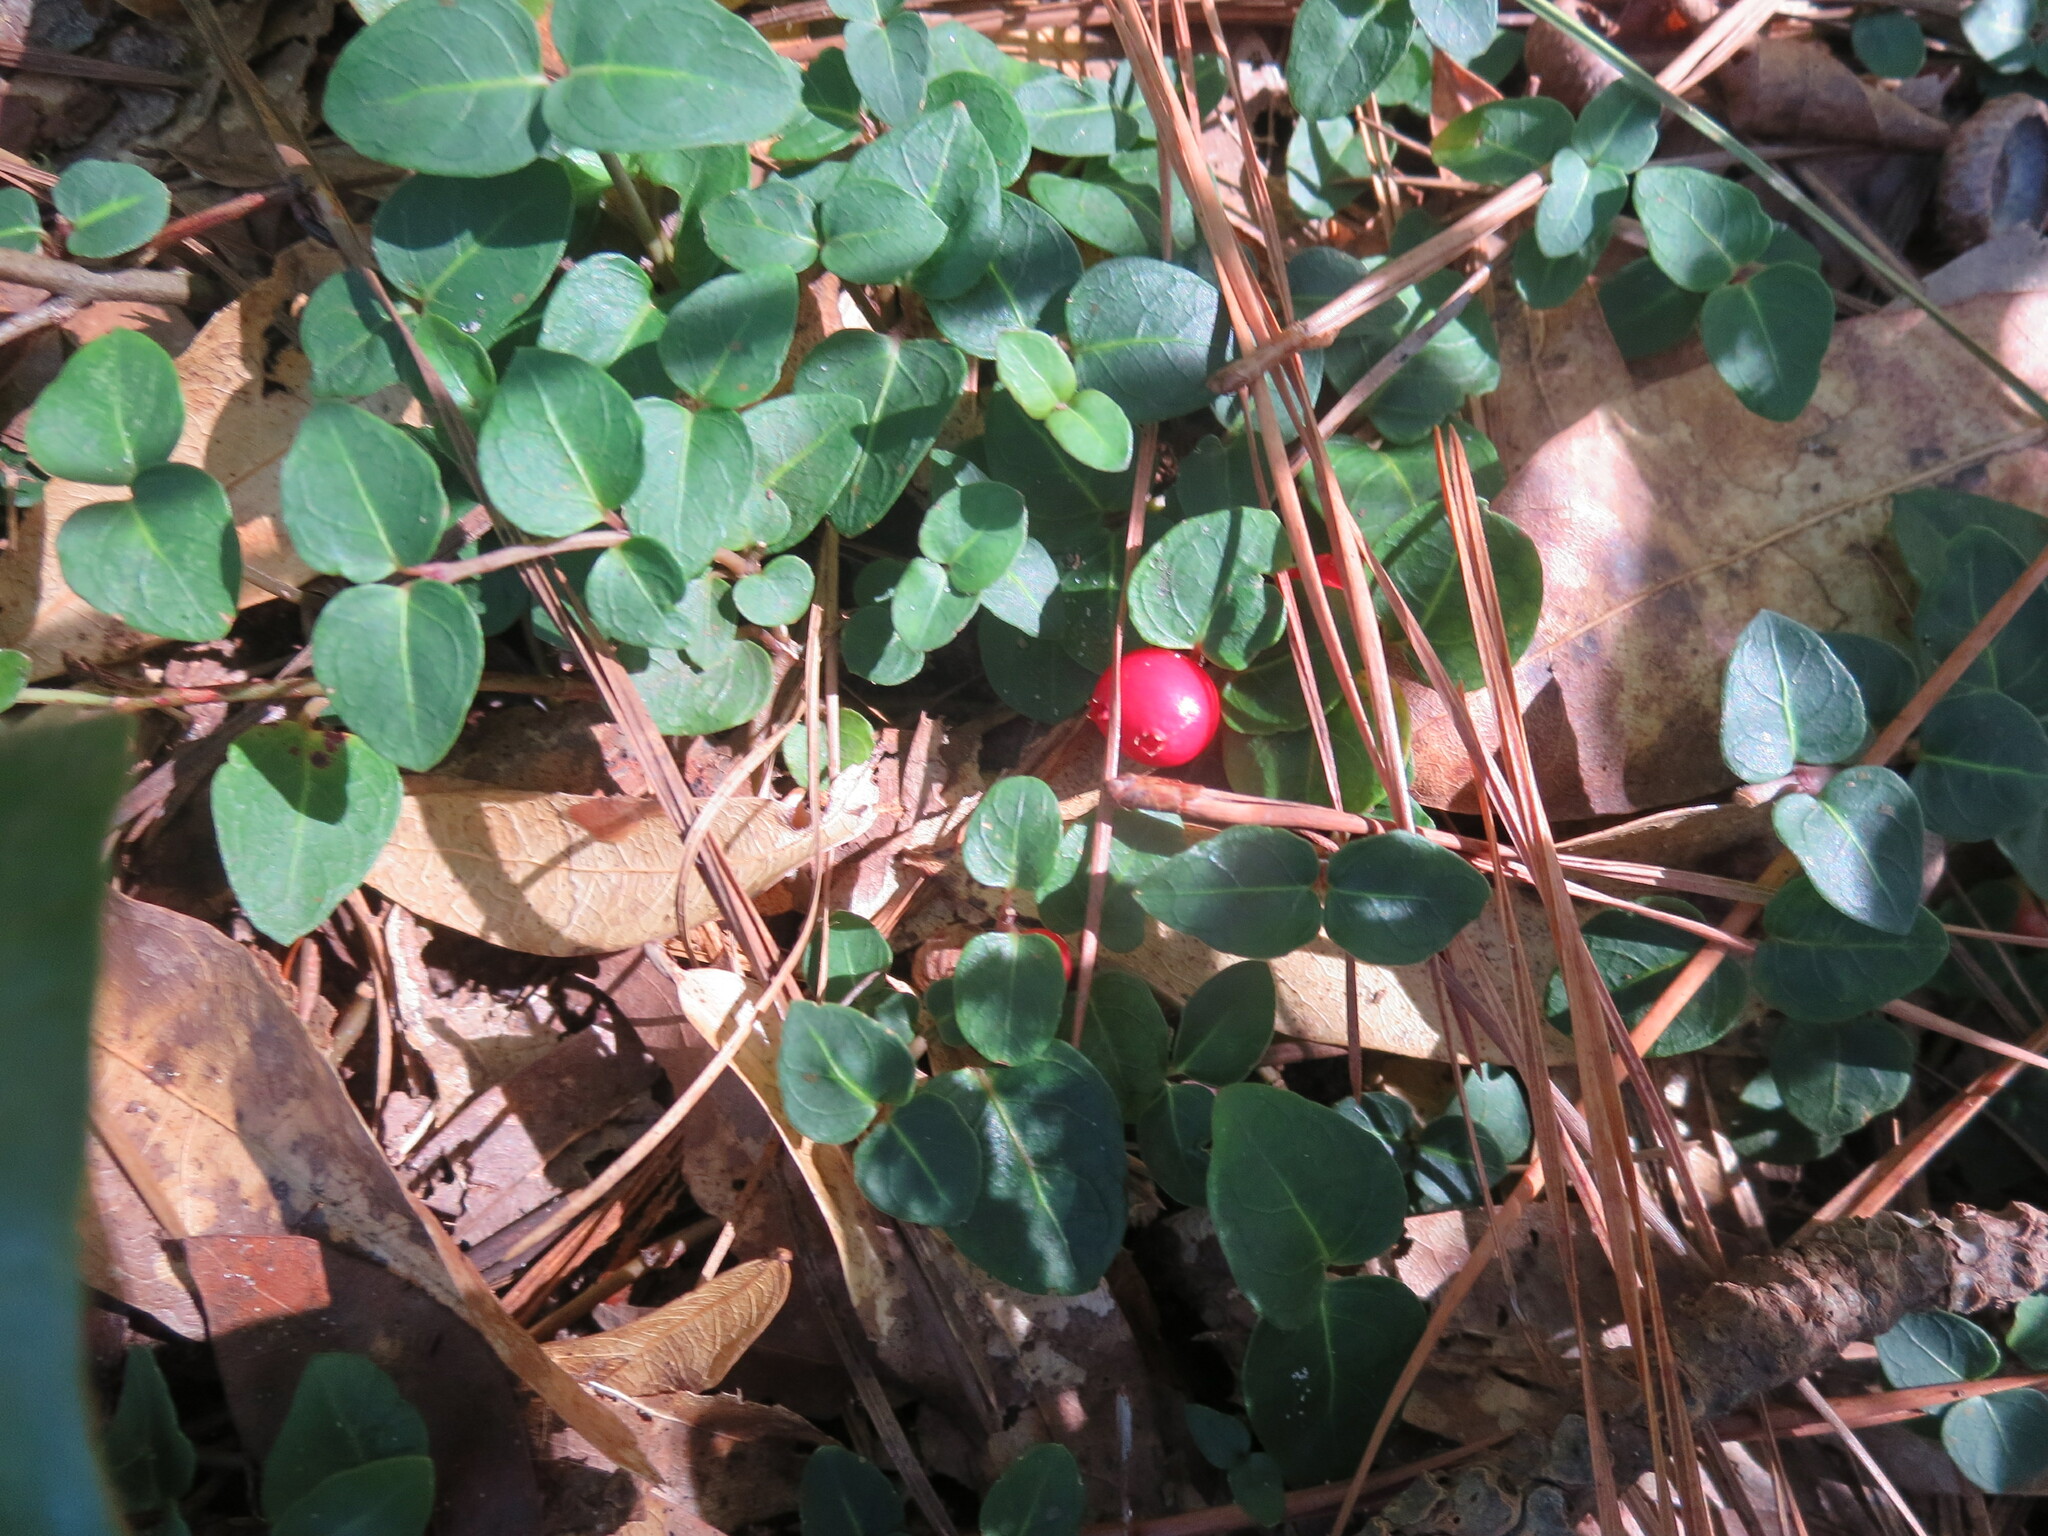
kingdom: Plantae
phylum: Tracheophyta
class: Magnoliopsida
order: Gentianales
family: Rubiaceae
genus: Mitchella
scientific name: Mitchella repens
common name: Partridge-berry
